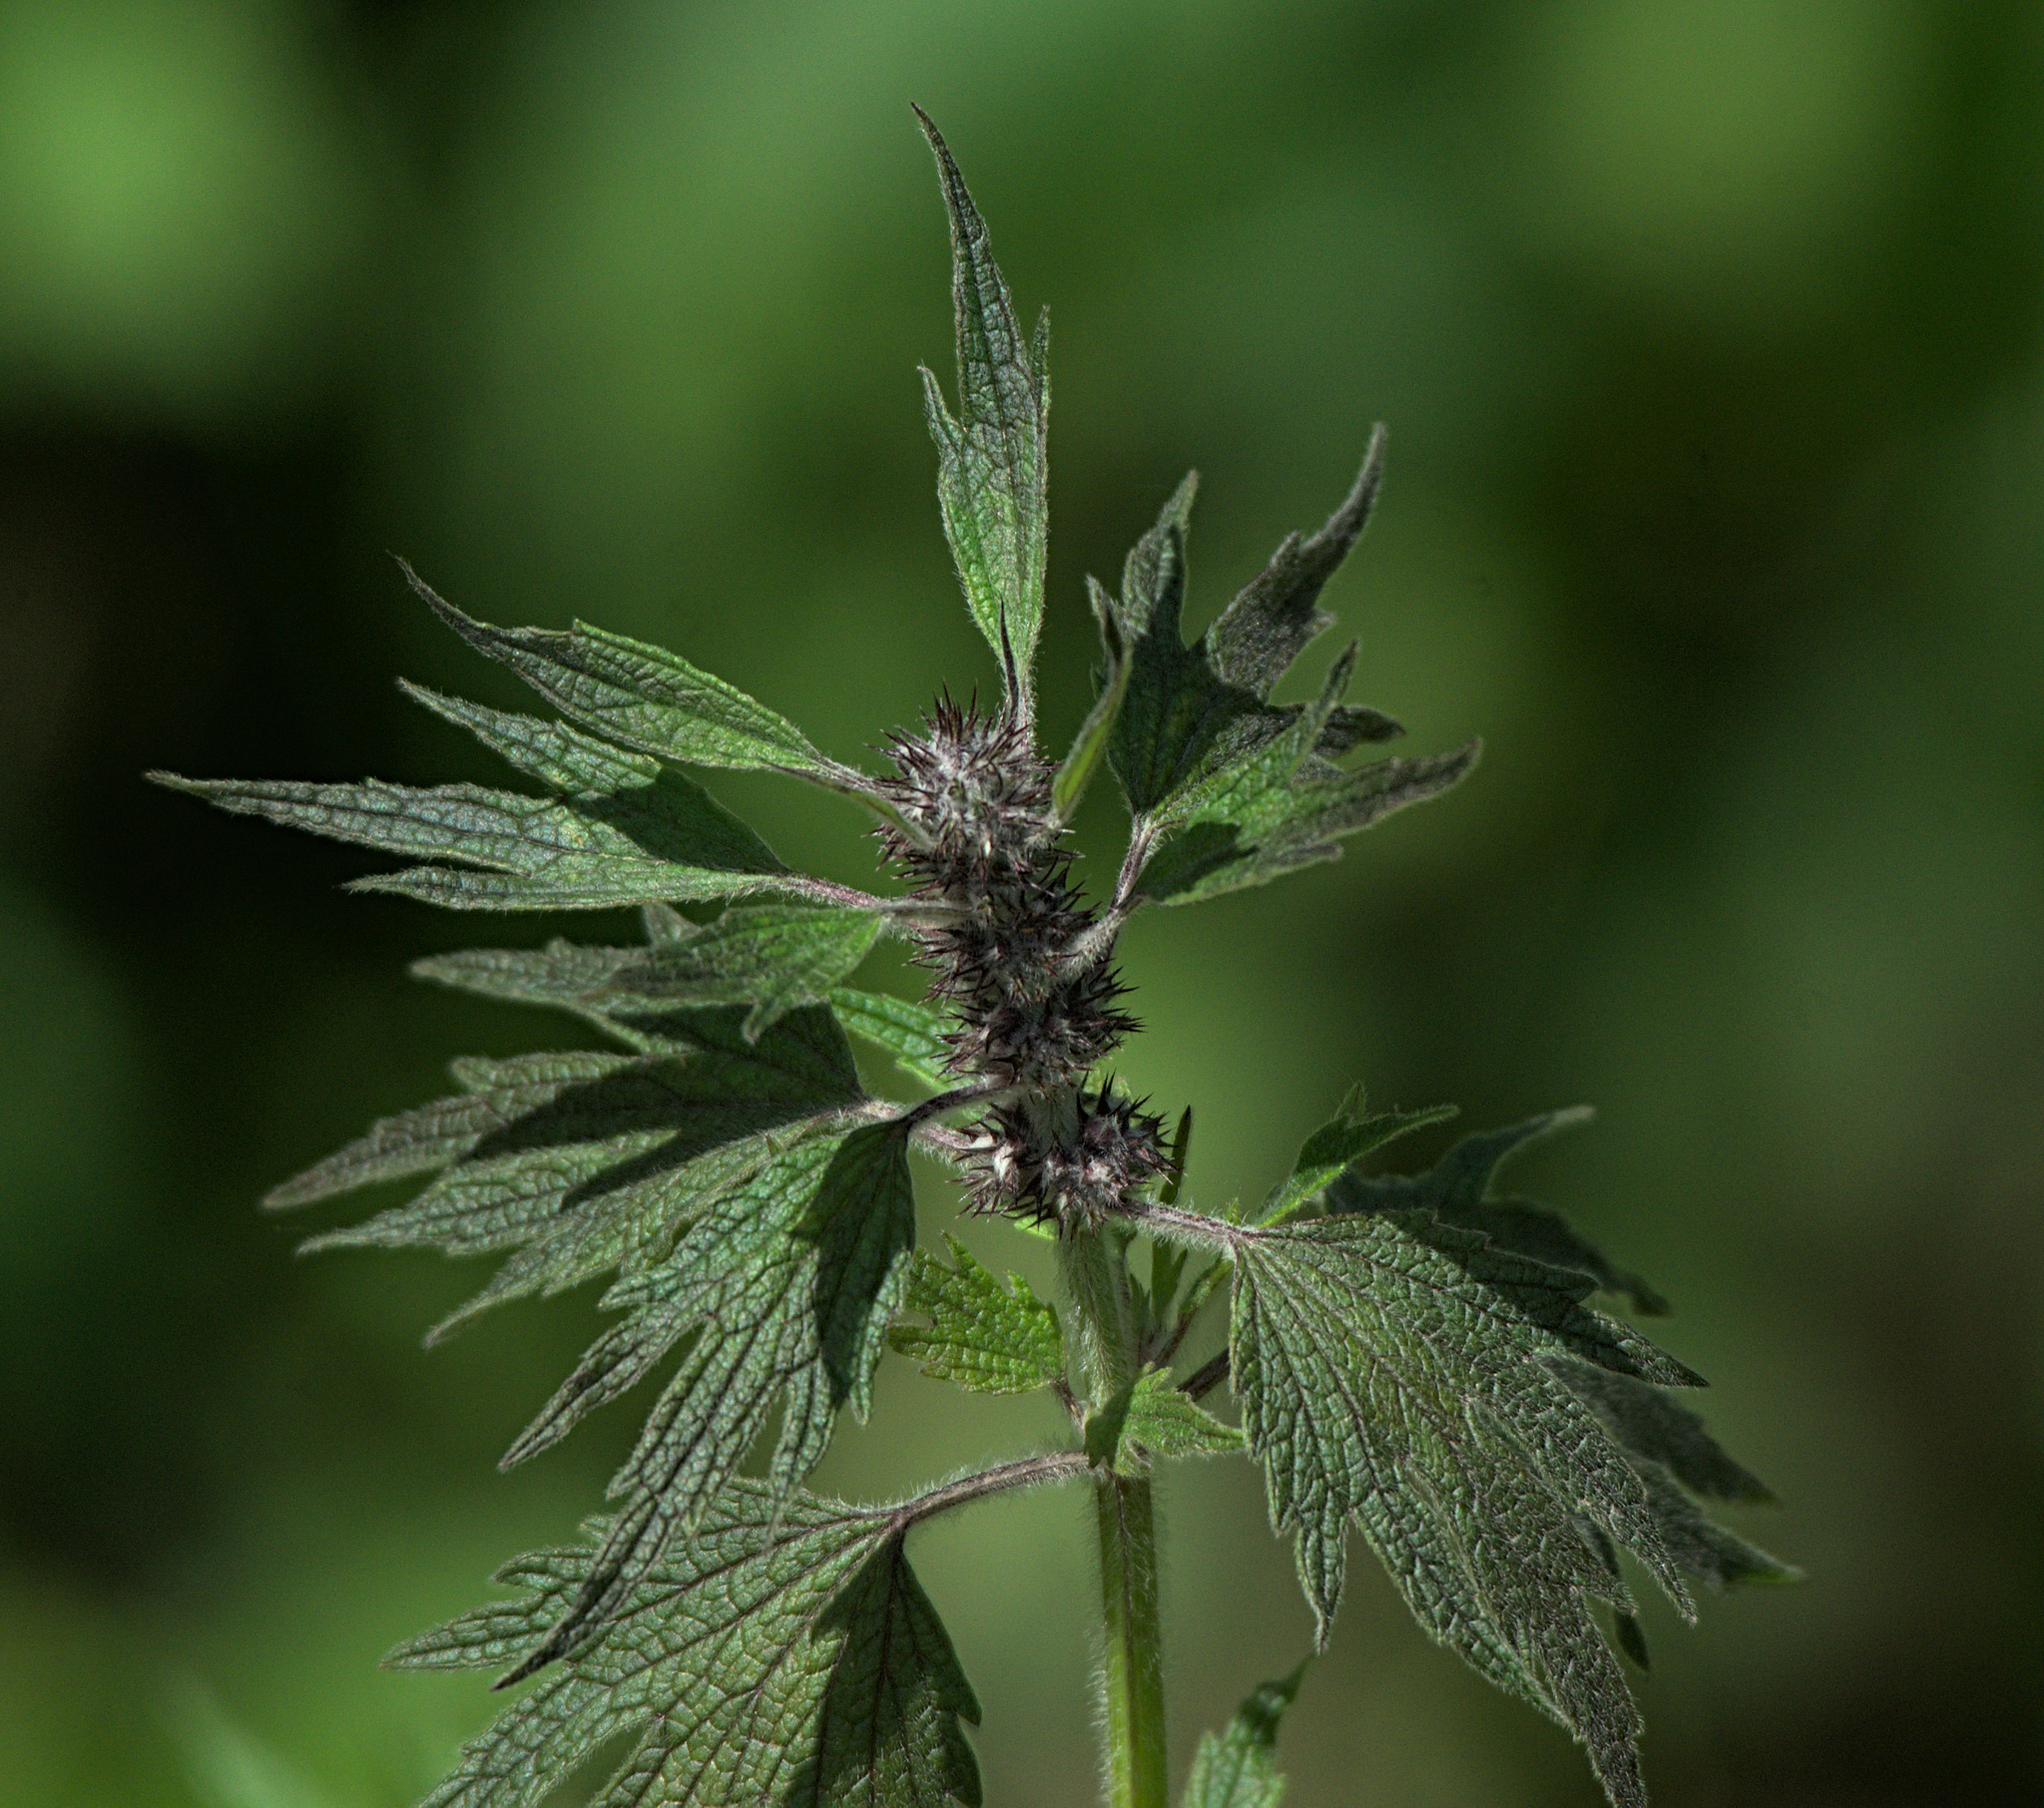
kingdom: Plantae
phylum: Tracheophyta
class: Magnoliopsida
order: Lamiales
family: Lamiaceae
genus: Leonurus
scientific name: Leonurus quinquelobatus
